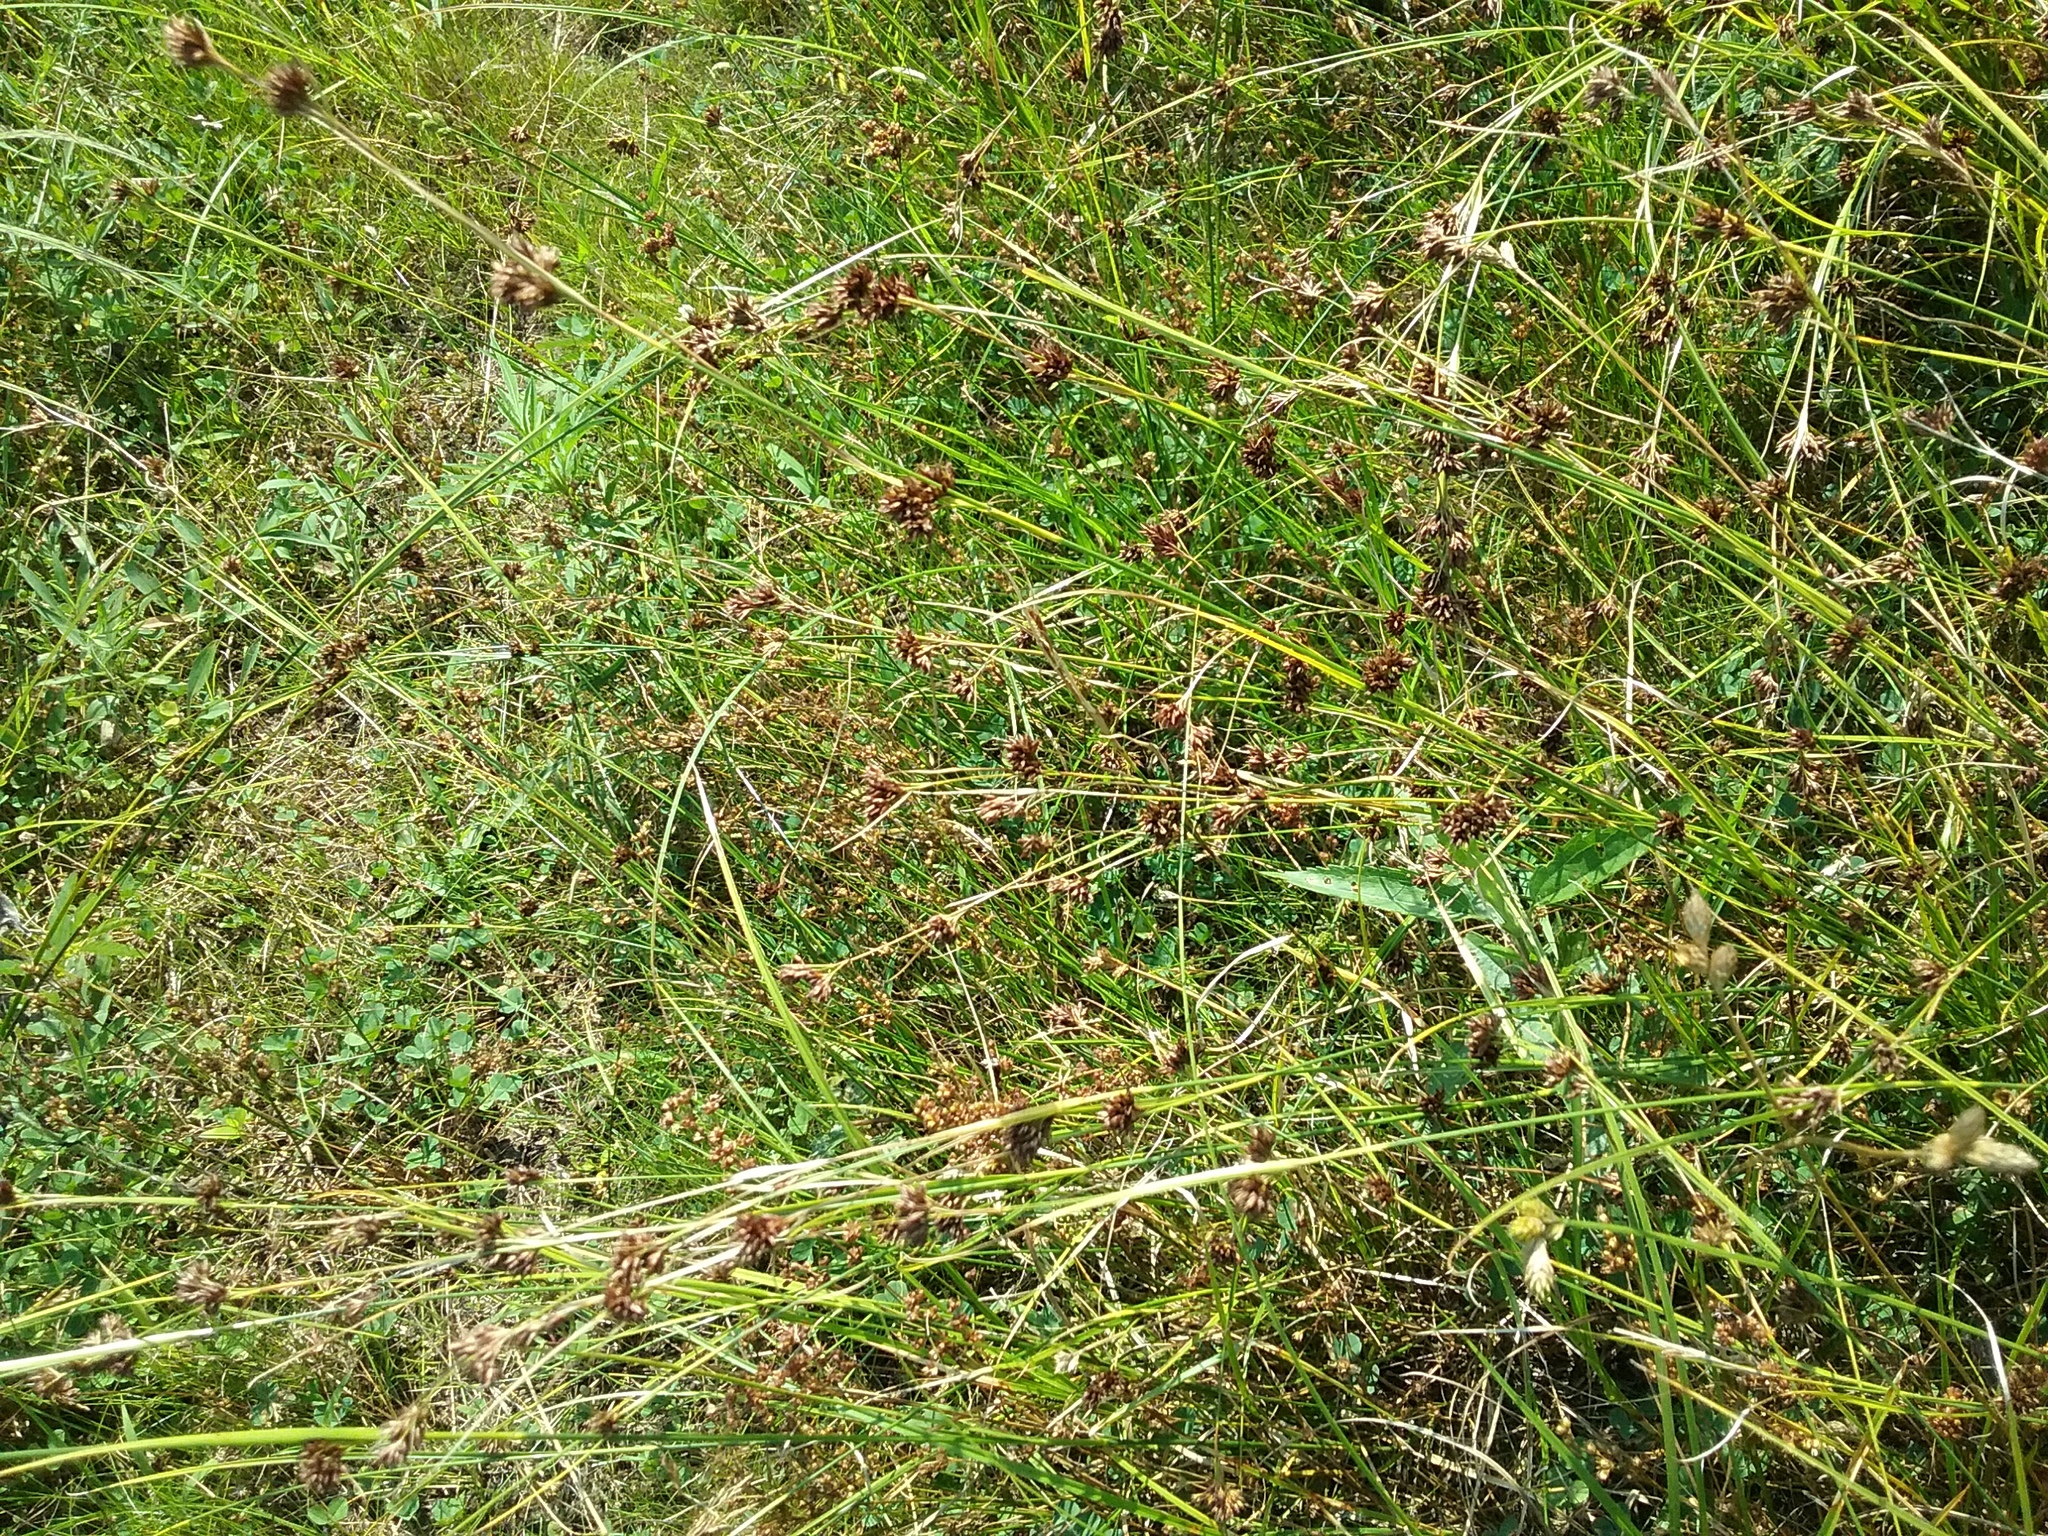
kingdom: Plantae
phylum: Tracheophyta
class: Liliopsida
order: Poales
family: Cyperaceae
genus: Rhynchospora
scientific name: Rhynchospora capitellata
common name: Brownish beaksedge
